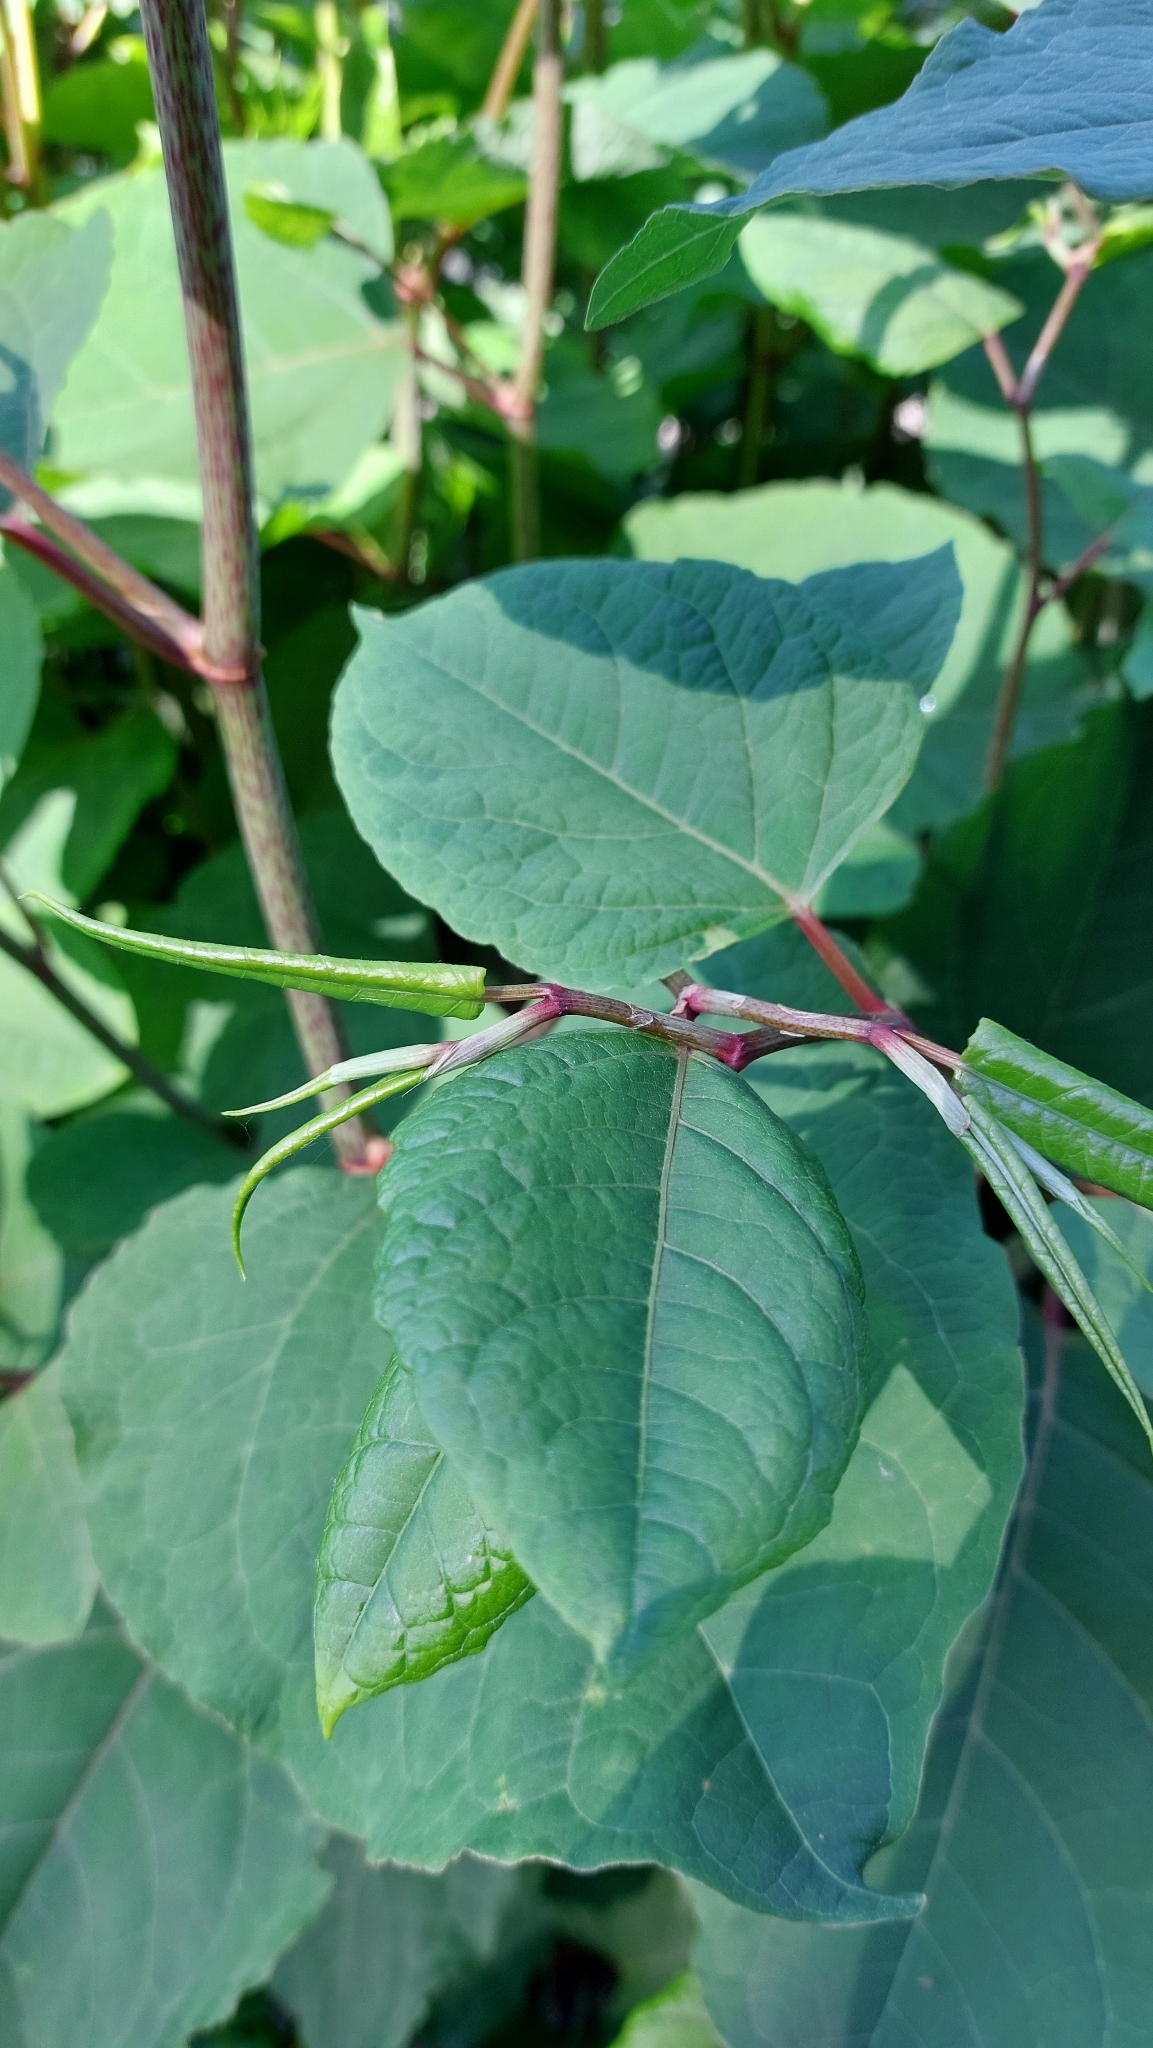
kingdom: Plantae
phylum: Tracheophyta
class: Magnoliopsida
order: Caryophyllales
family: Polygonaceae
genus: Reynoutria
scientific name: Reynoutria
